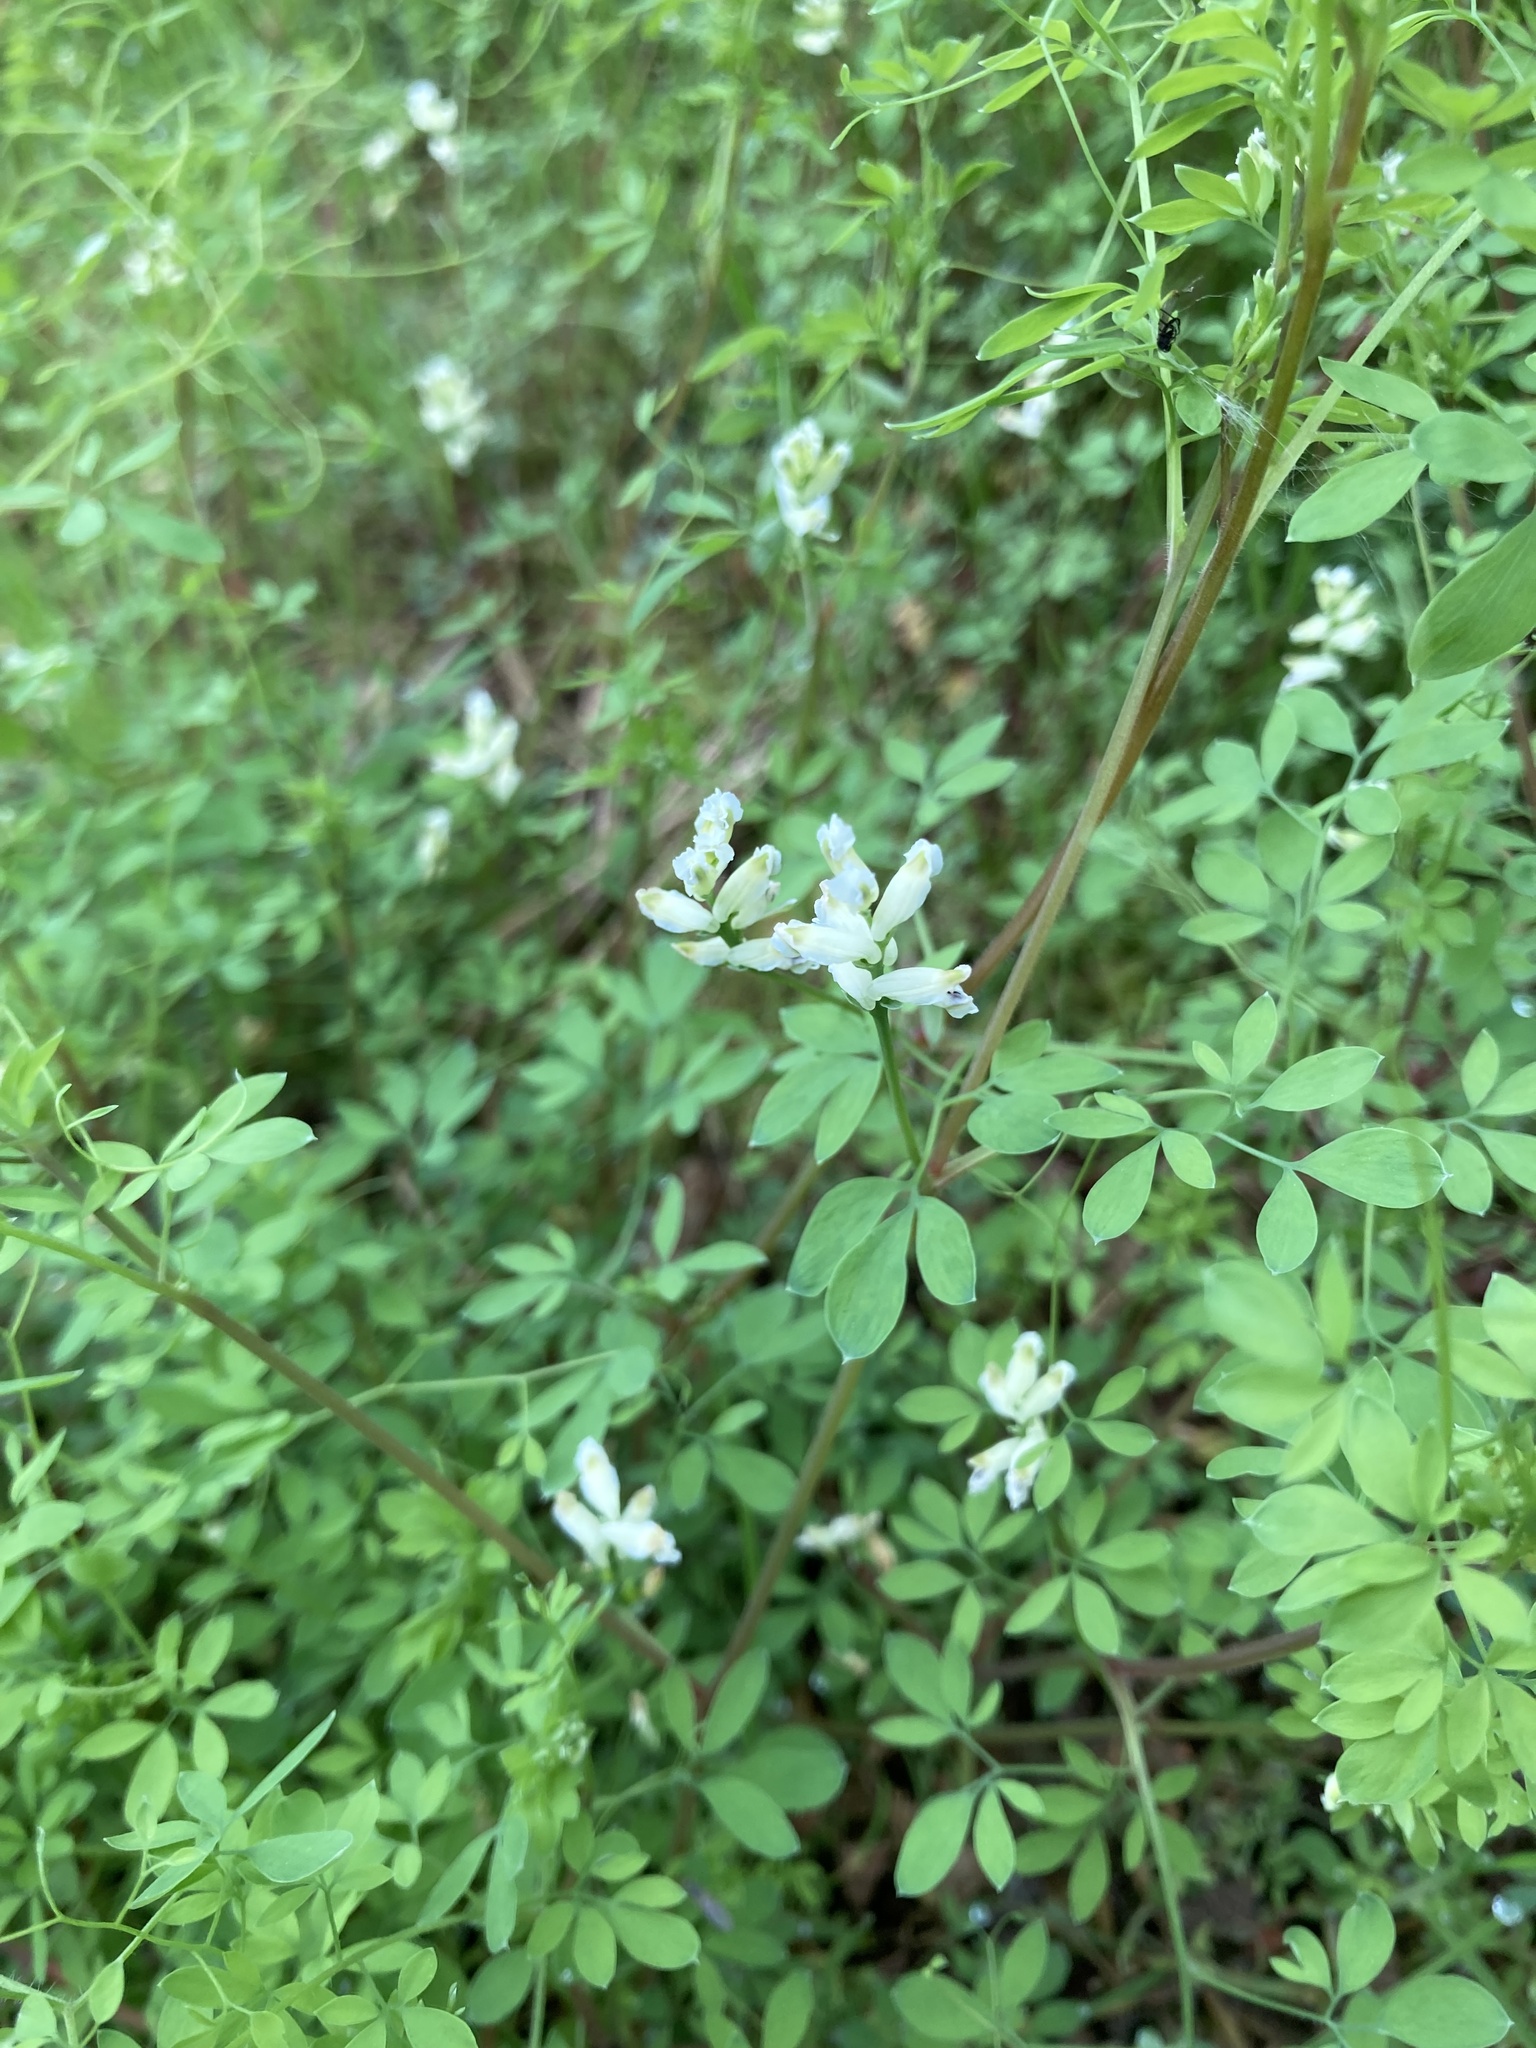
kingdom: Plantae
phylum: Tracheophyta
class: Magnoliopsida
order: Ranunculales
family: Papaveraceae
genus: Ceratocapnos
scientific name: Ceratocapnos claviculata
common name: Climbing corydalis
